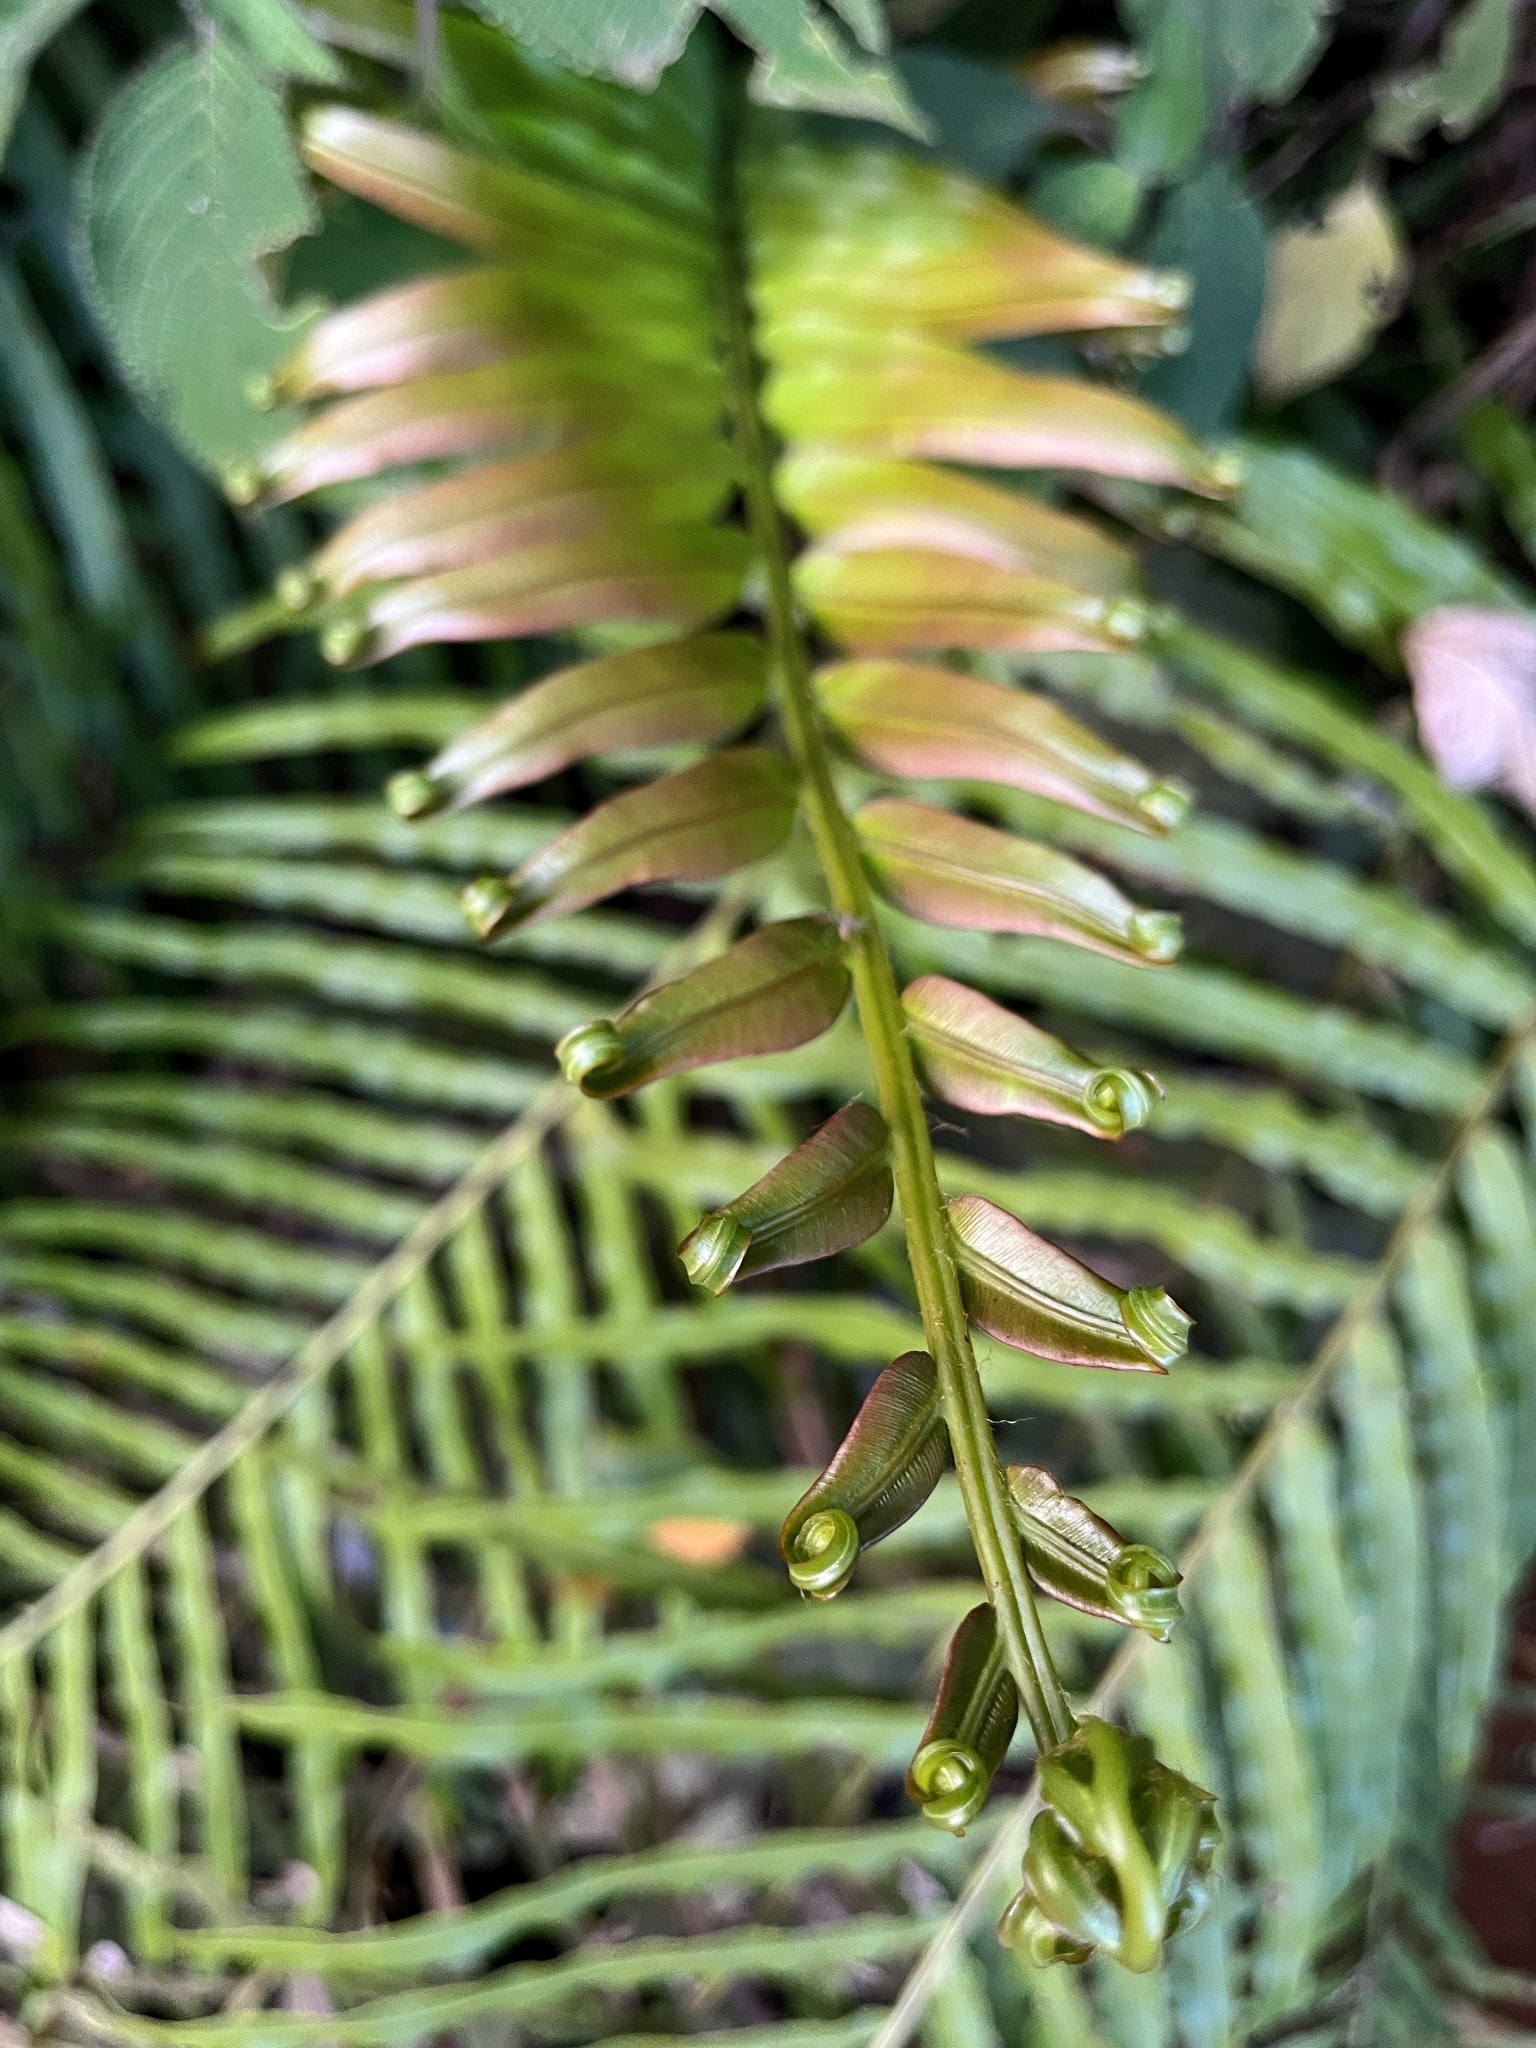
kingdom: Plantae
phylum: Tracheophyta
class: Polypodiopsida
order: Polypodiales
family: Blechnaceae
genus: Blechnopsis
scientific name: Blechnopsis orientalis
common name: Oriental blechnum
